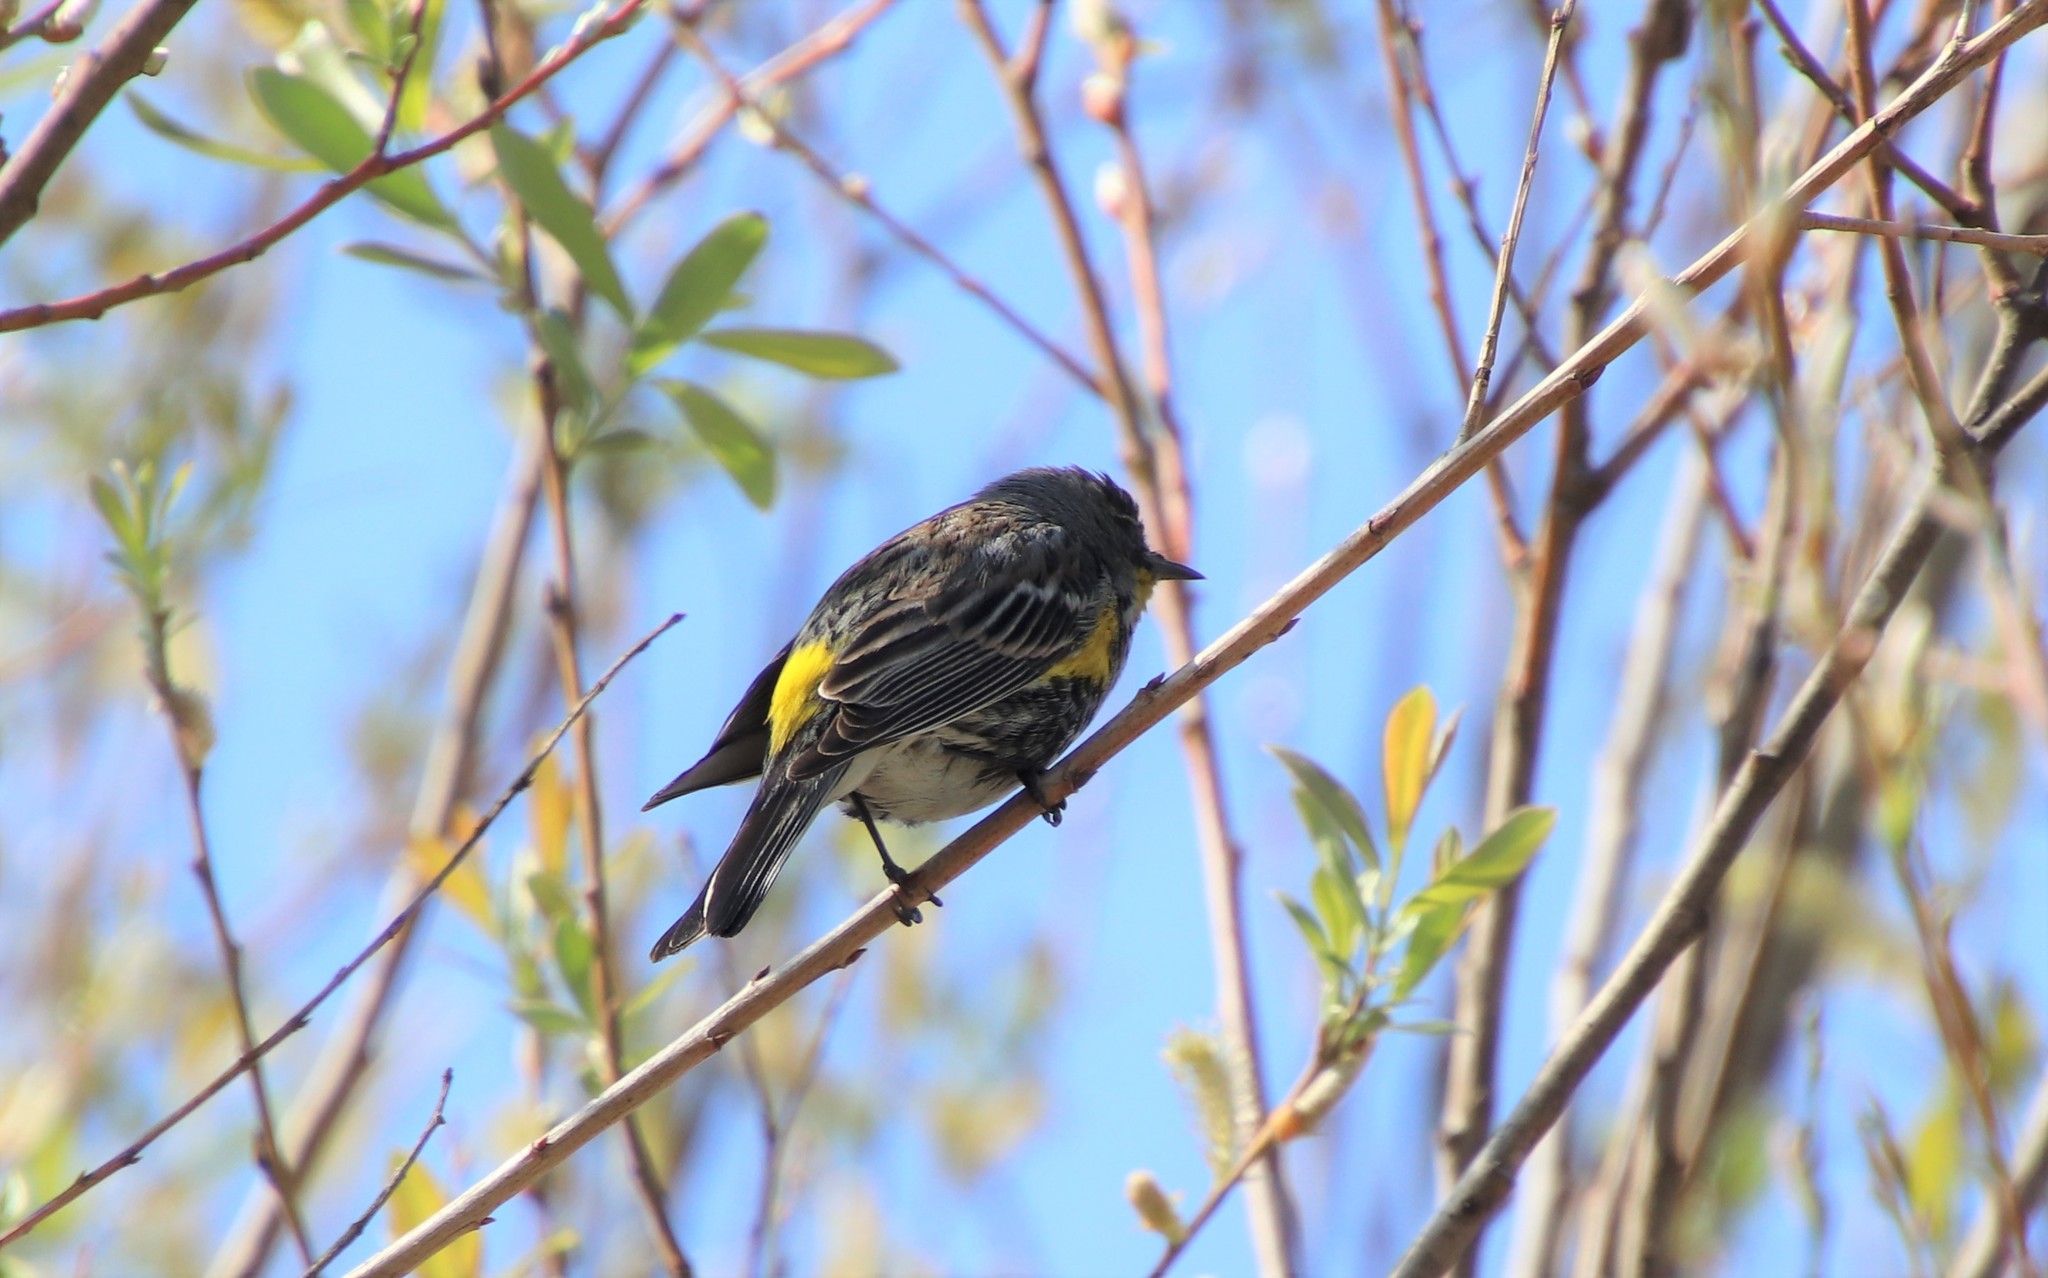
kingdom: Animalia
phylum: Chordata
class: Aves
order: Passeriformes
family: Parulidae
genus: Setophaga
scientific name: Setophaga auduboni
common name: Audubon's warbler
